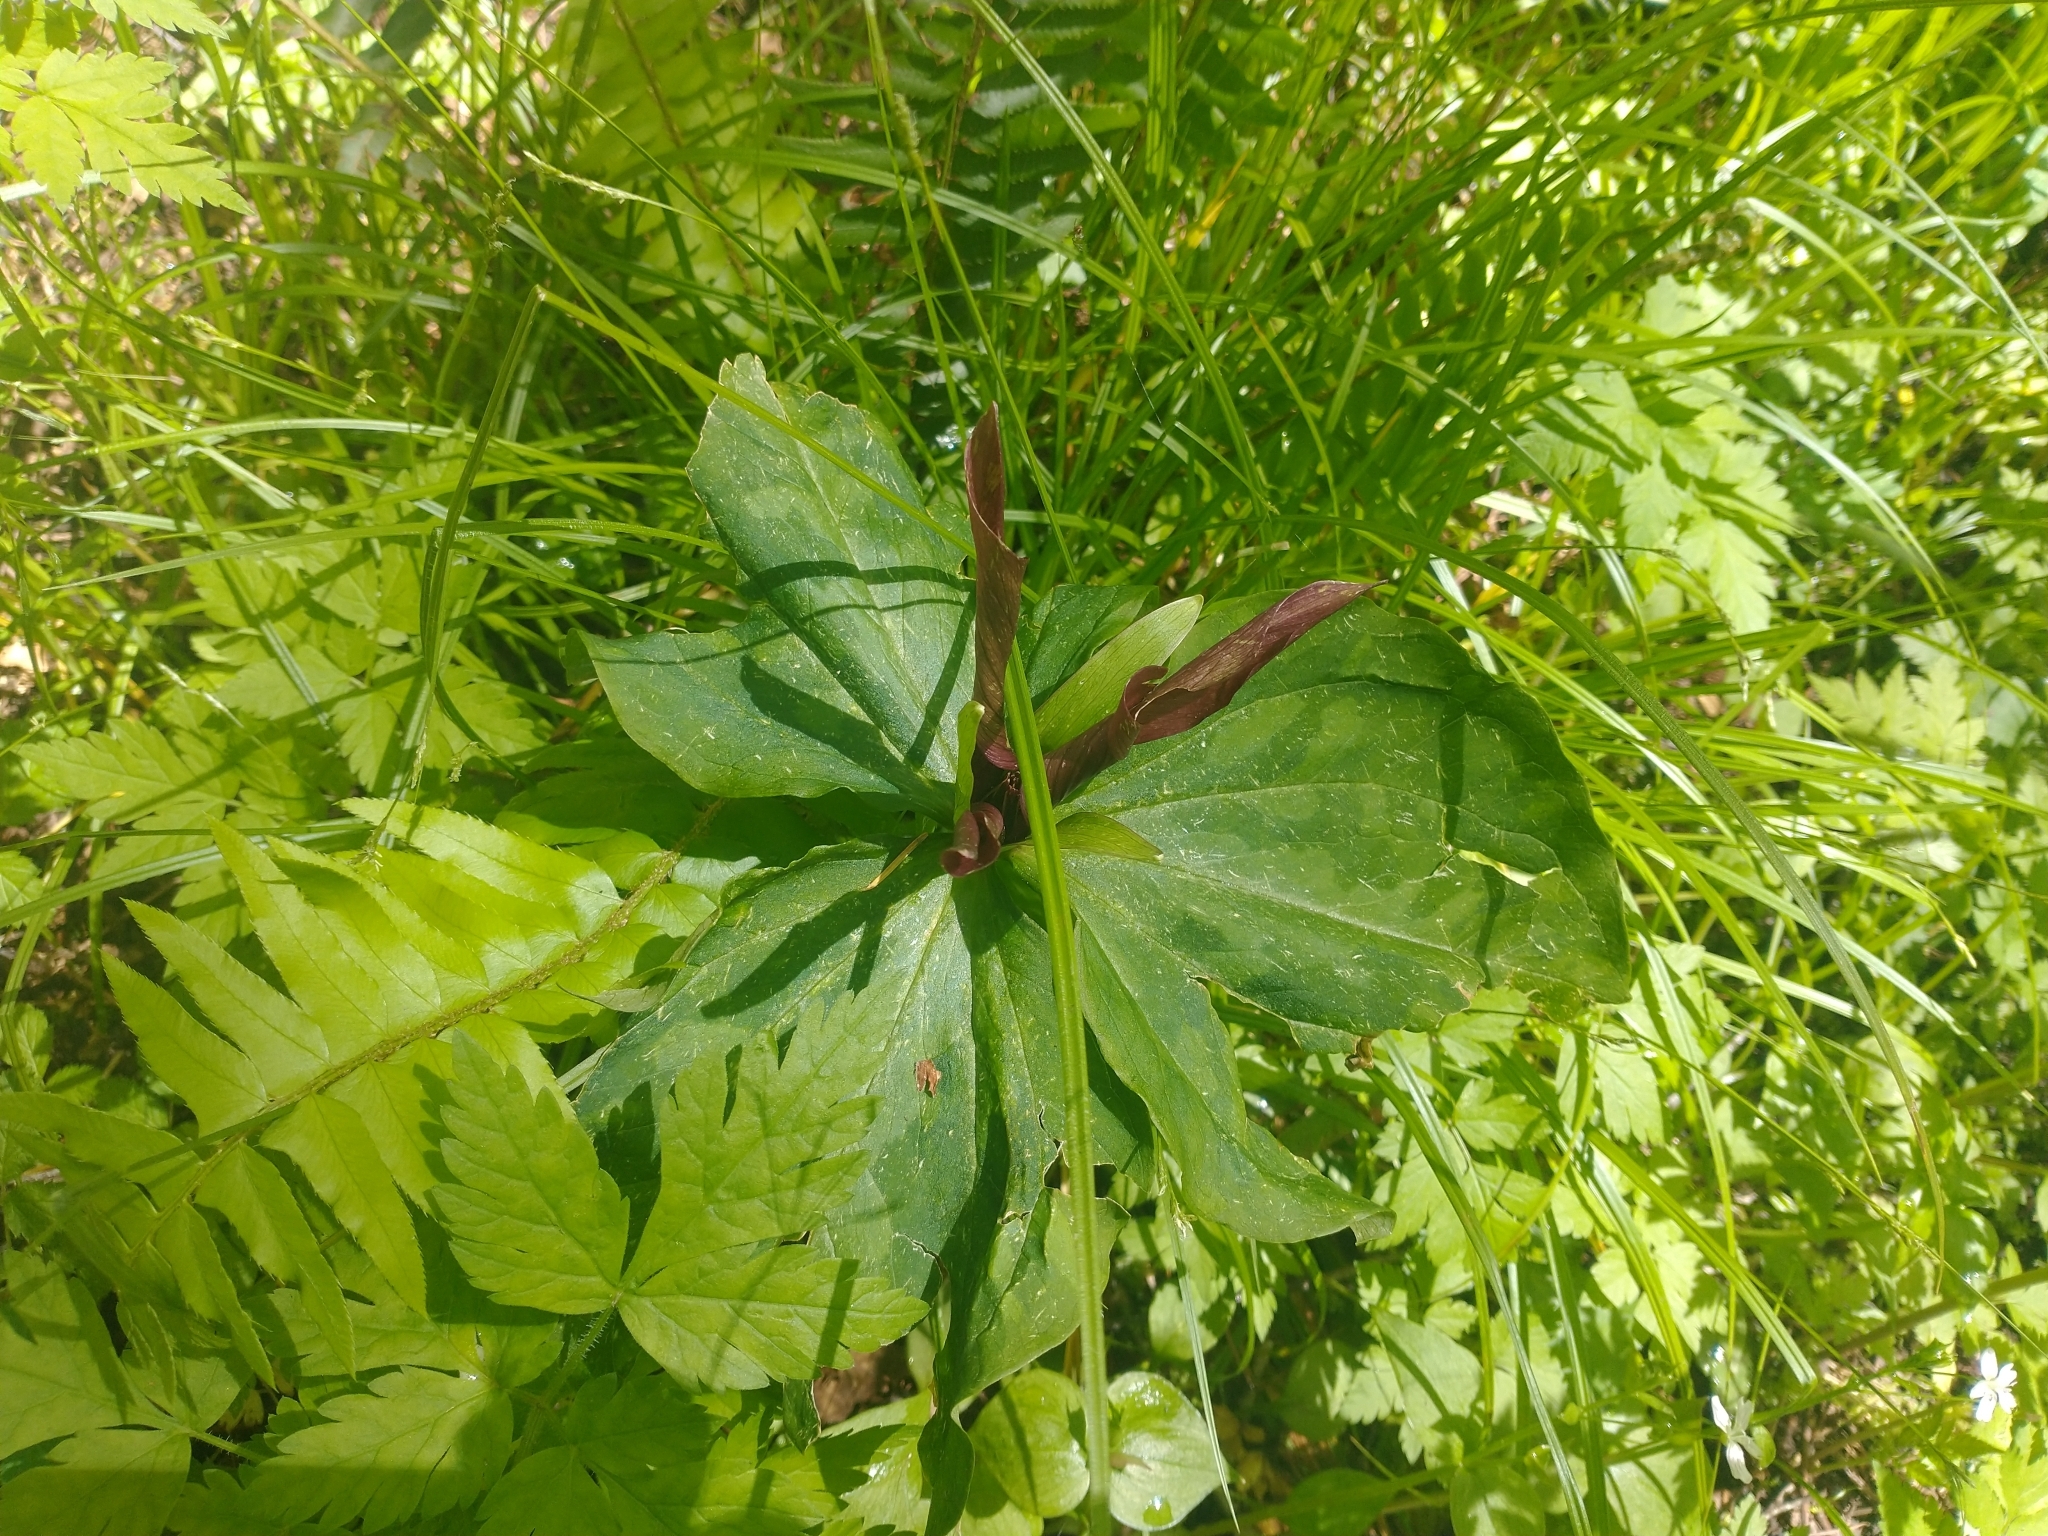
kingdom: Plantae
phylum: Tracheophyta
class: Liliopsida
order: Liliales
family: Melanthiaceae
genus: Trillium
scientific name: Trillium kurabayashii
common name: Giant purple trillium
